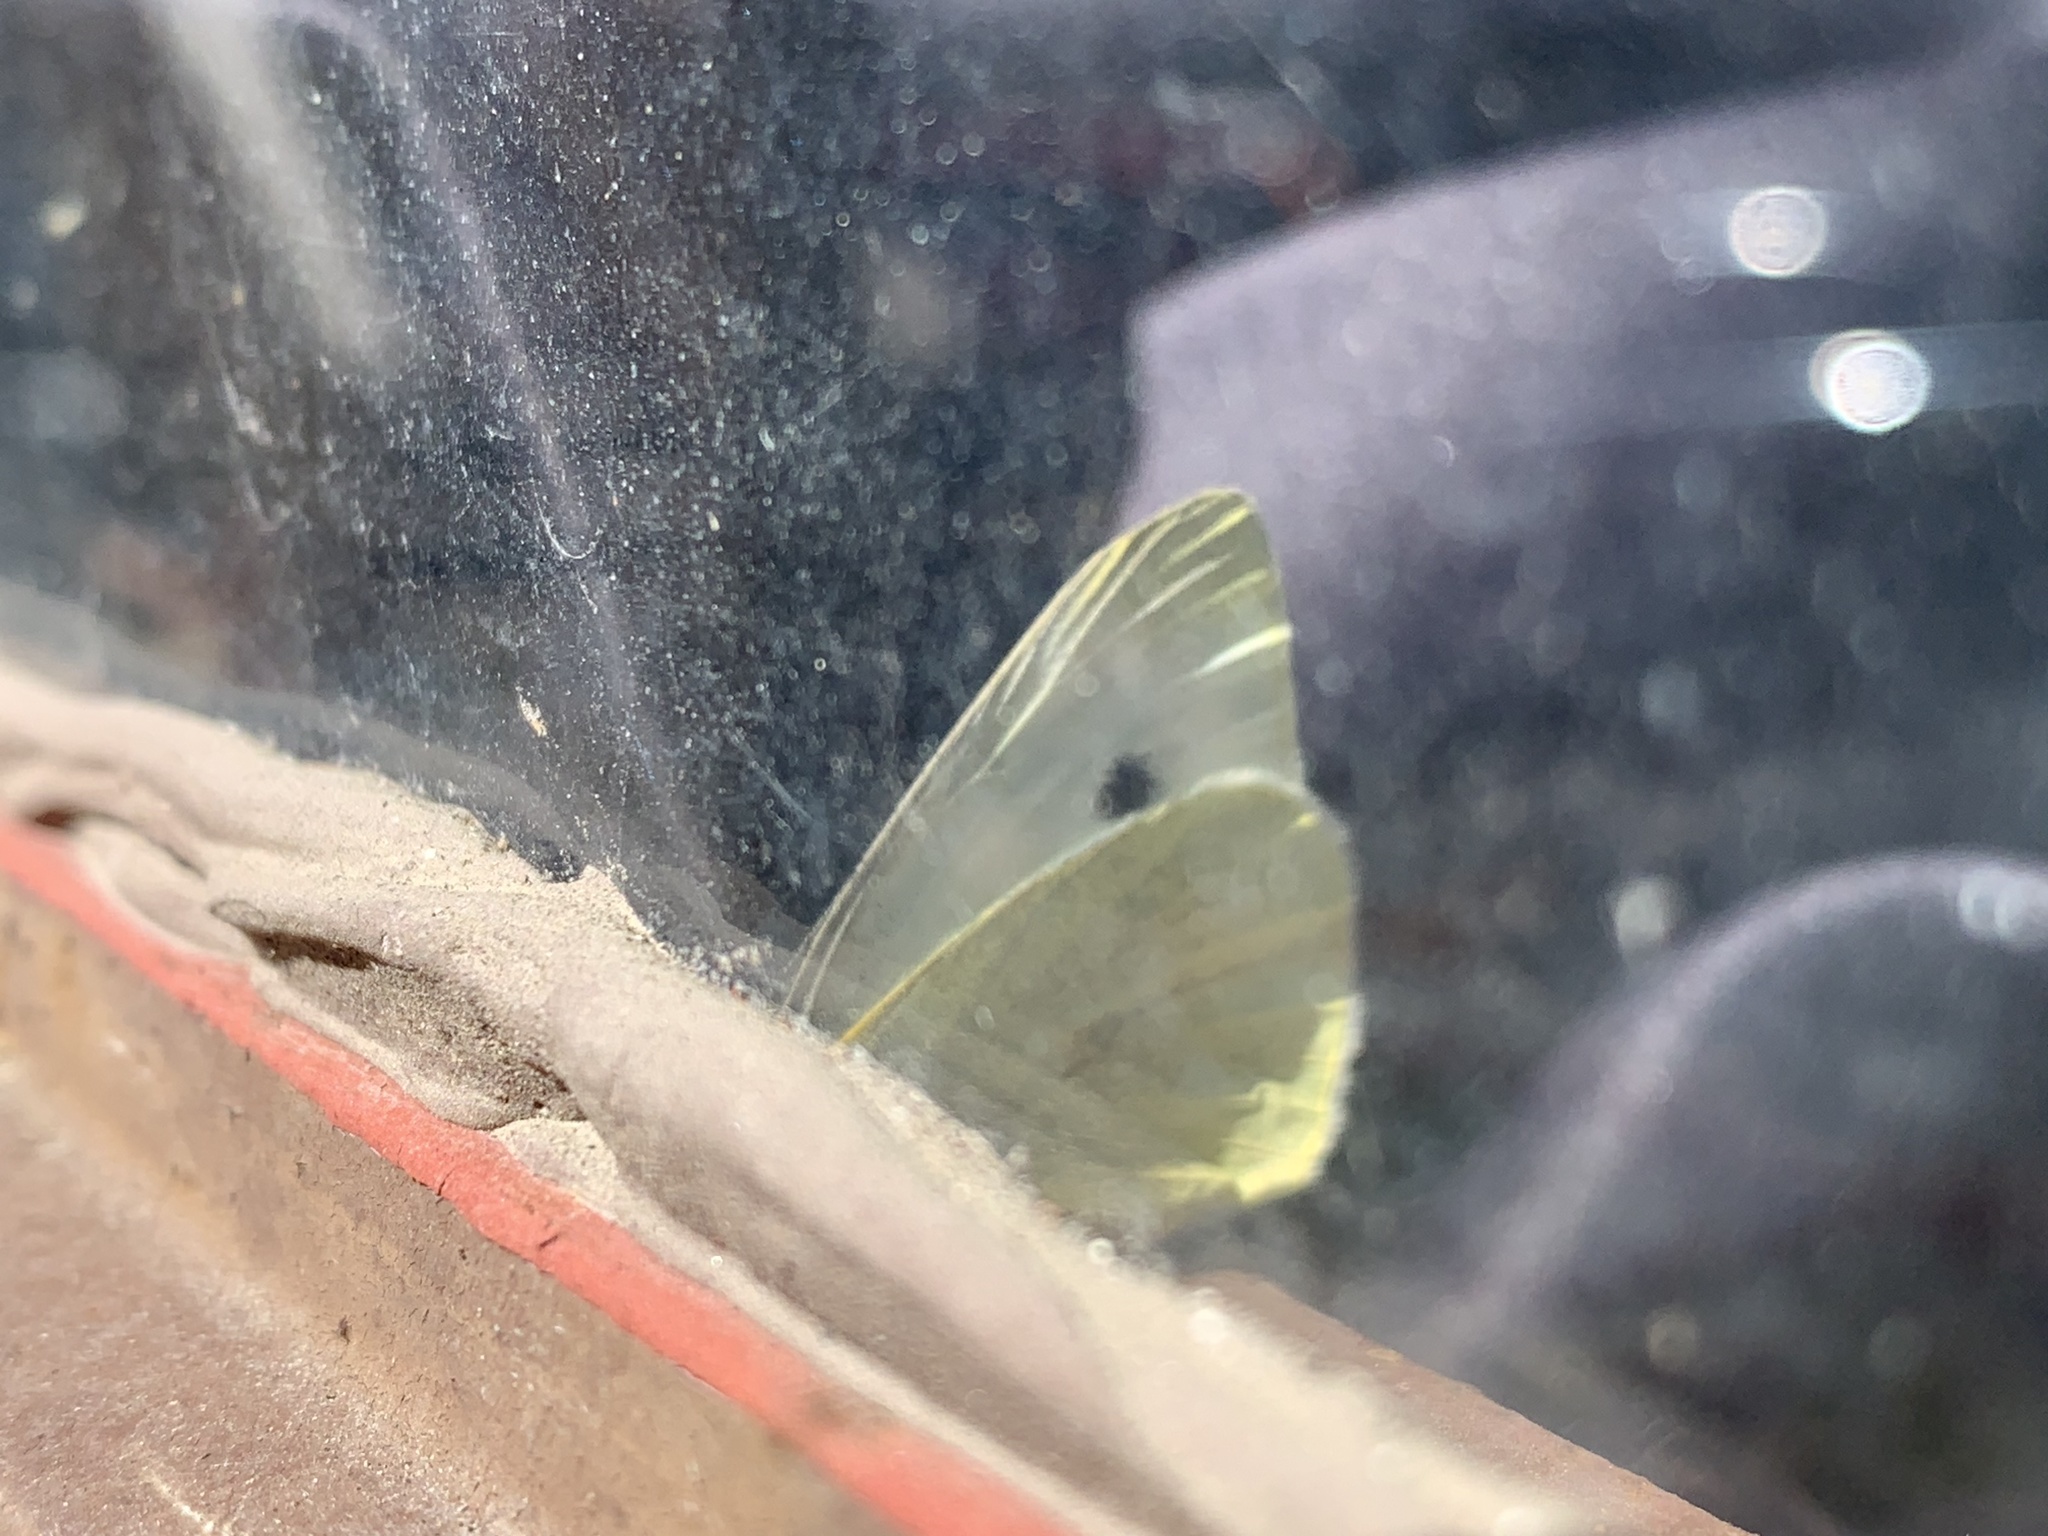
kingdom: Animalia
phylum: Arthropoda
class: Insecta
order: Lepidoptera
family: Pieridae
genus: Pieris
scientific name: Pieris rapae
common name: Small white
